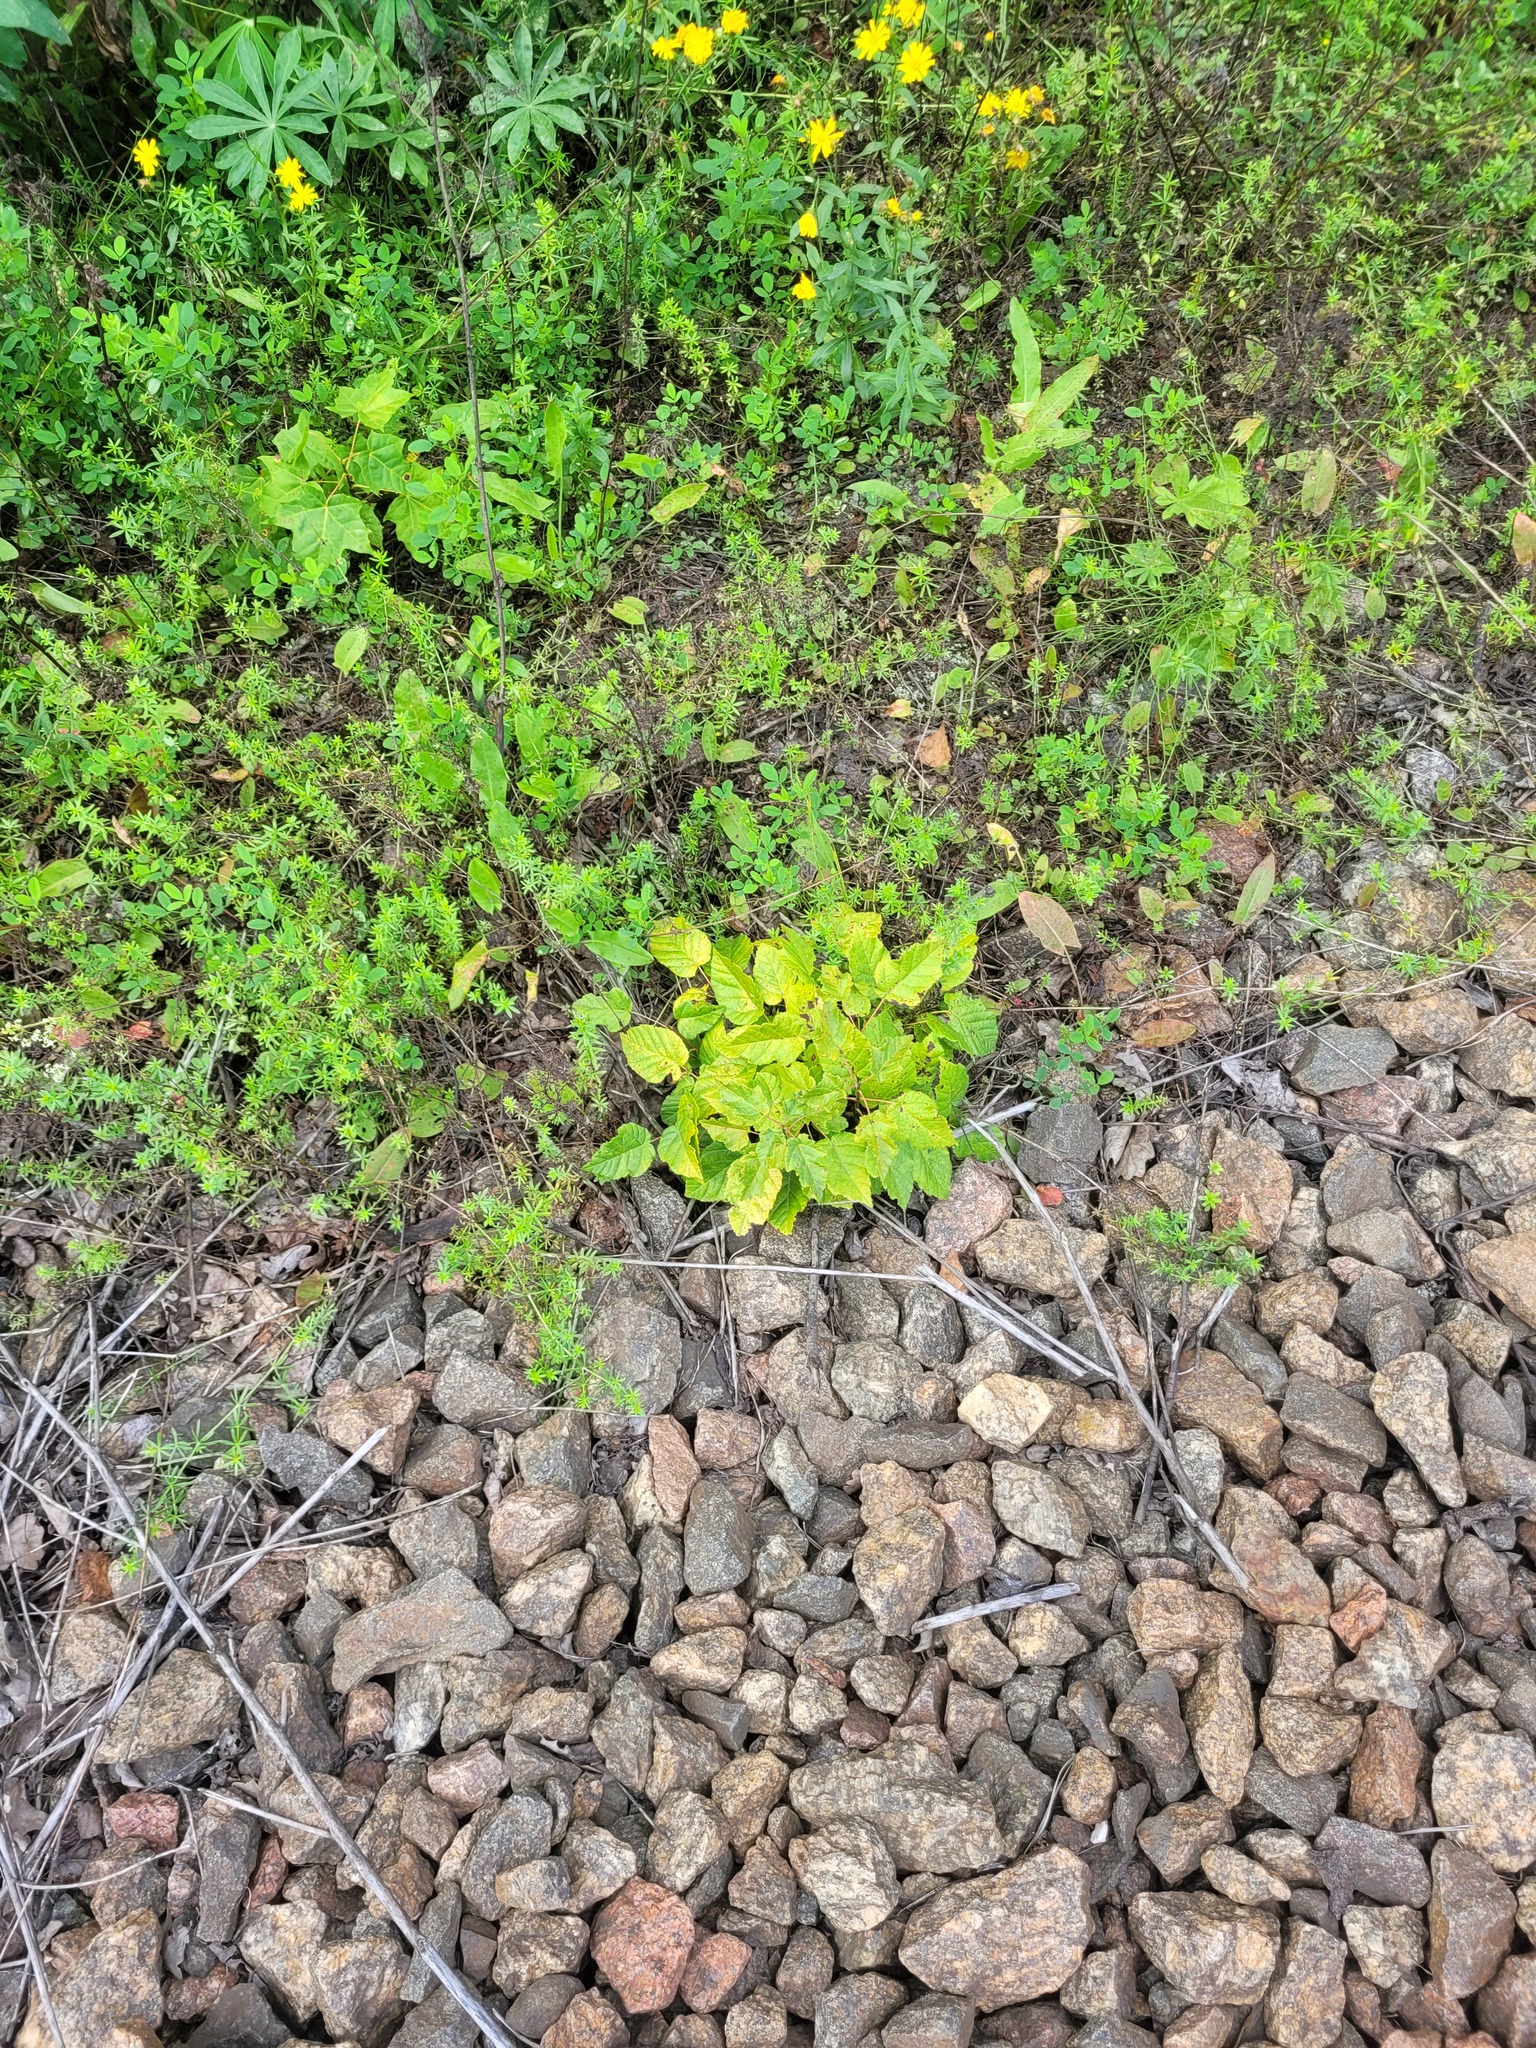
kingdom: Plantae
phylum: Tracheophyta
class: Magnoliopsida
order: Sapindales
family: Sapindaceae
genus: Acer
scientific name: Acer tataricum
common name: Tartar maple
